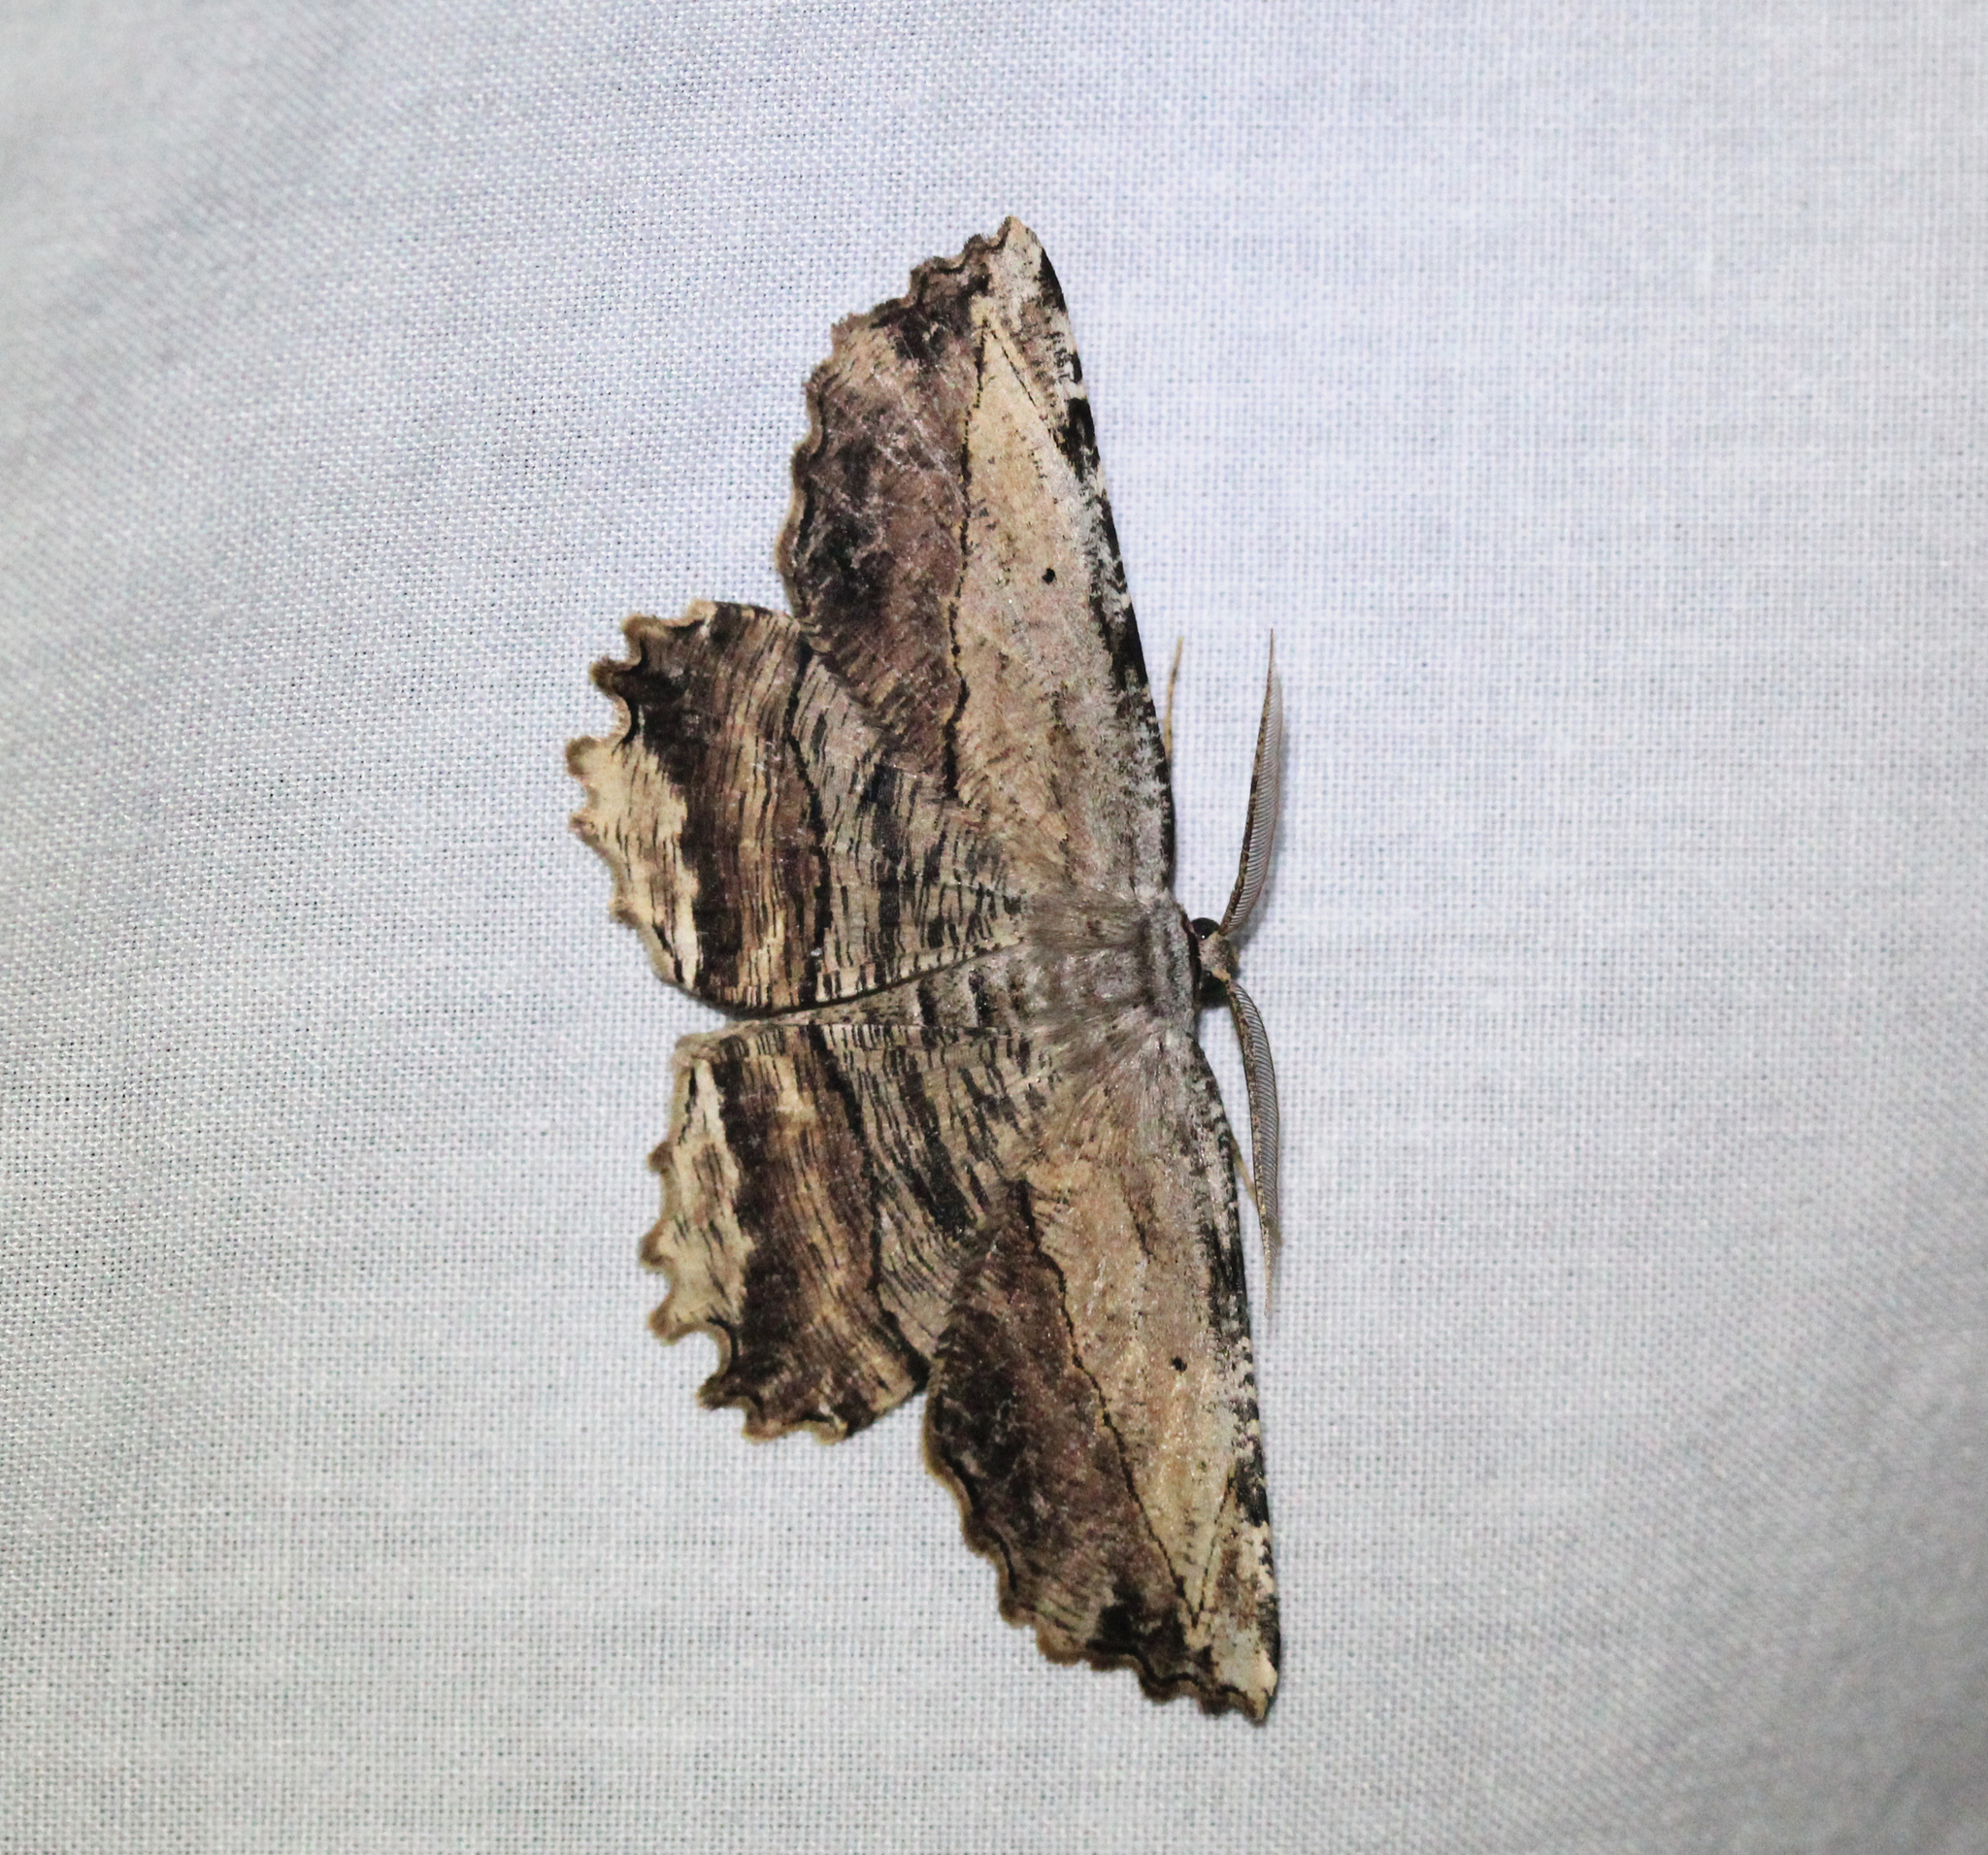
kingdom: Animalia
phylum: Arthropoda
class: Insecta
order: Lepidoptera
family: Geometridae
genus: Lytrosis
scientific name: Lytrosis unitaria
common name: Common lytrosis
